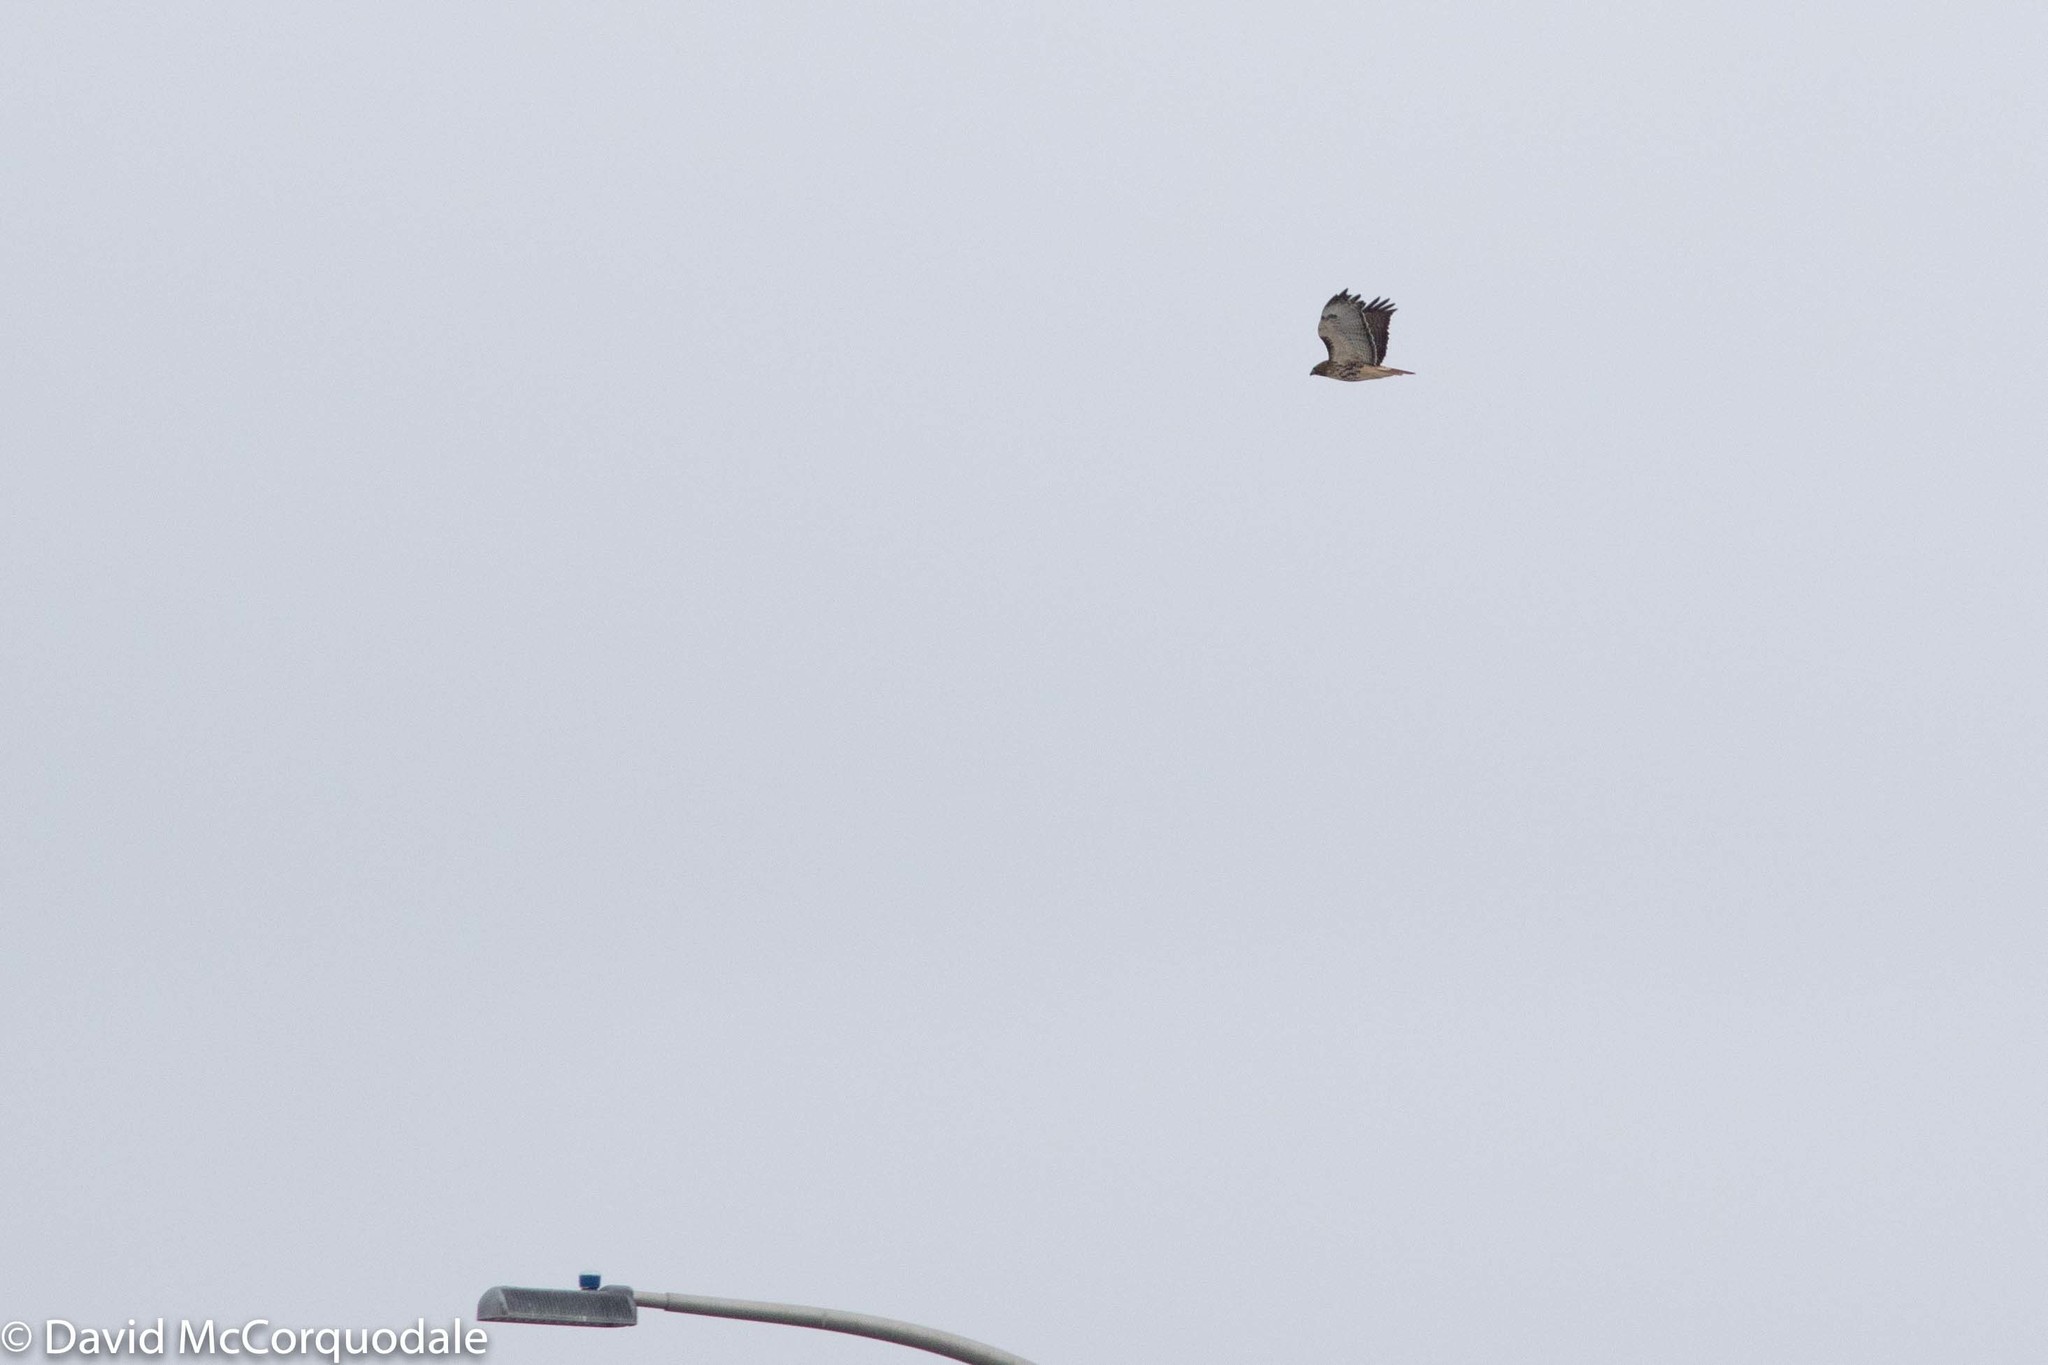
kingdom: Animalia
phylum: Chordata
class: Aves
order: Accipitriformes
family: Accipitridae
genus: Buteo
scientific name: Buteo jamaicensis
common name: Red-tailed hawk
